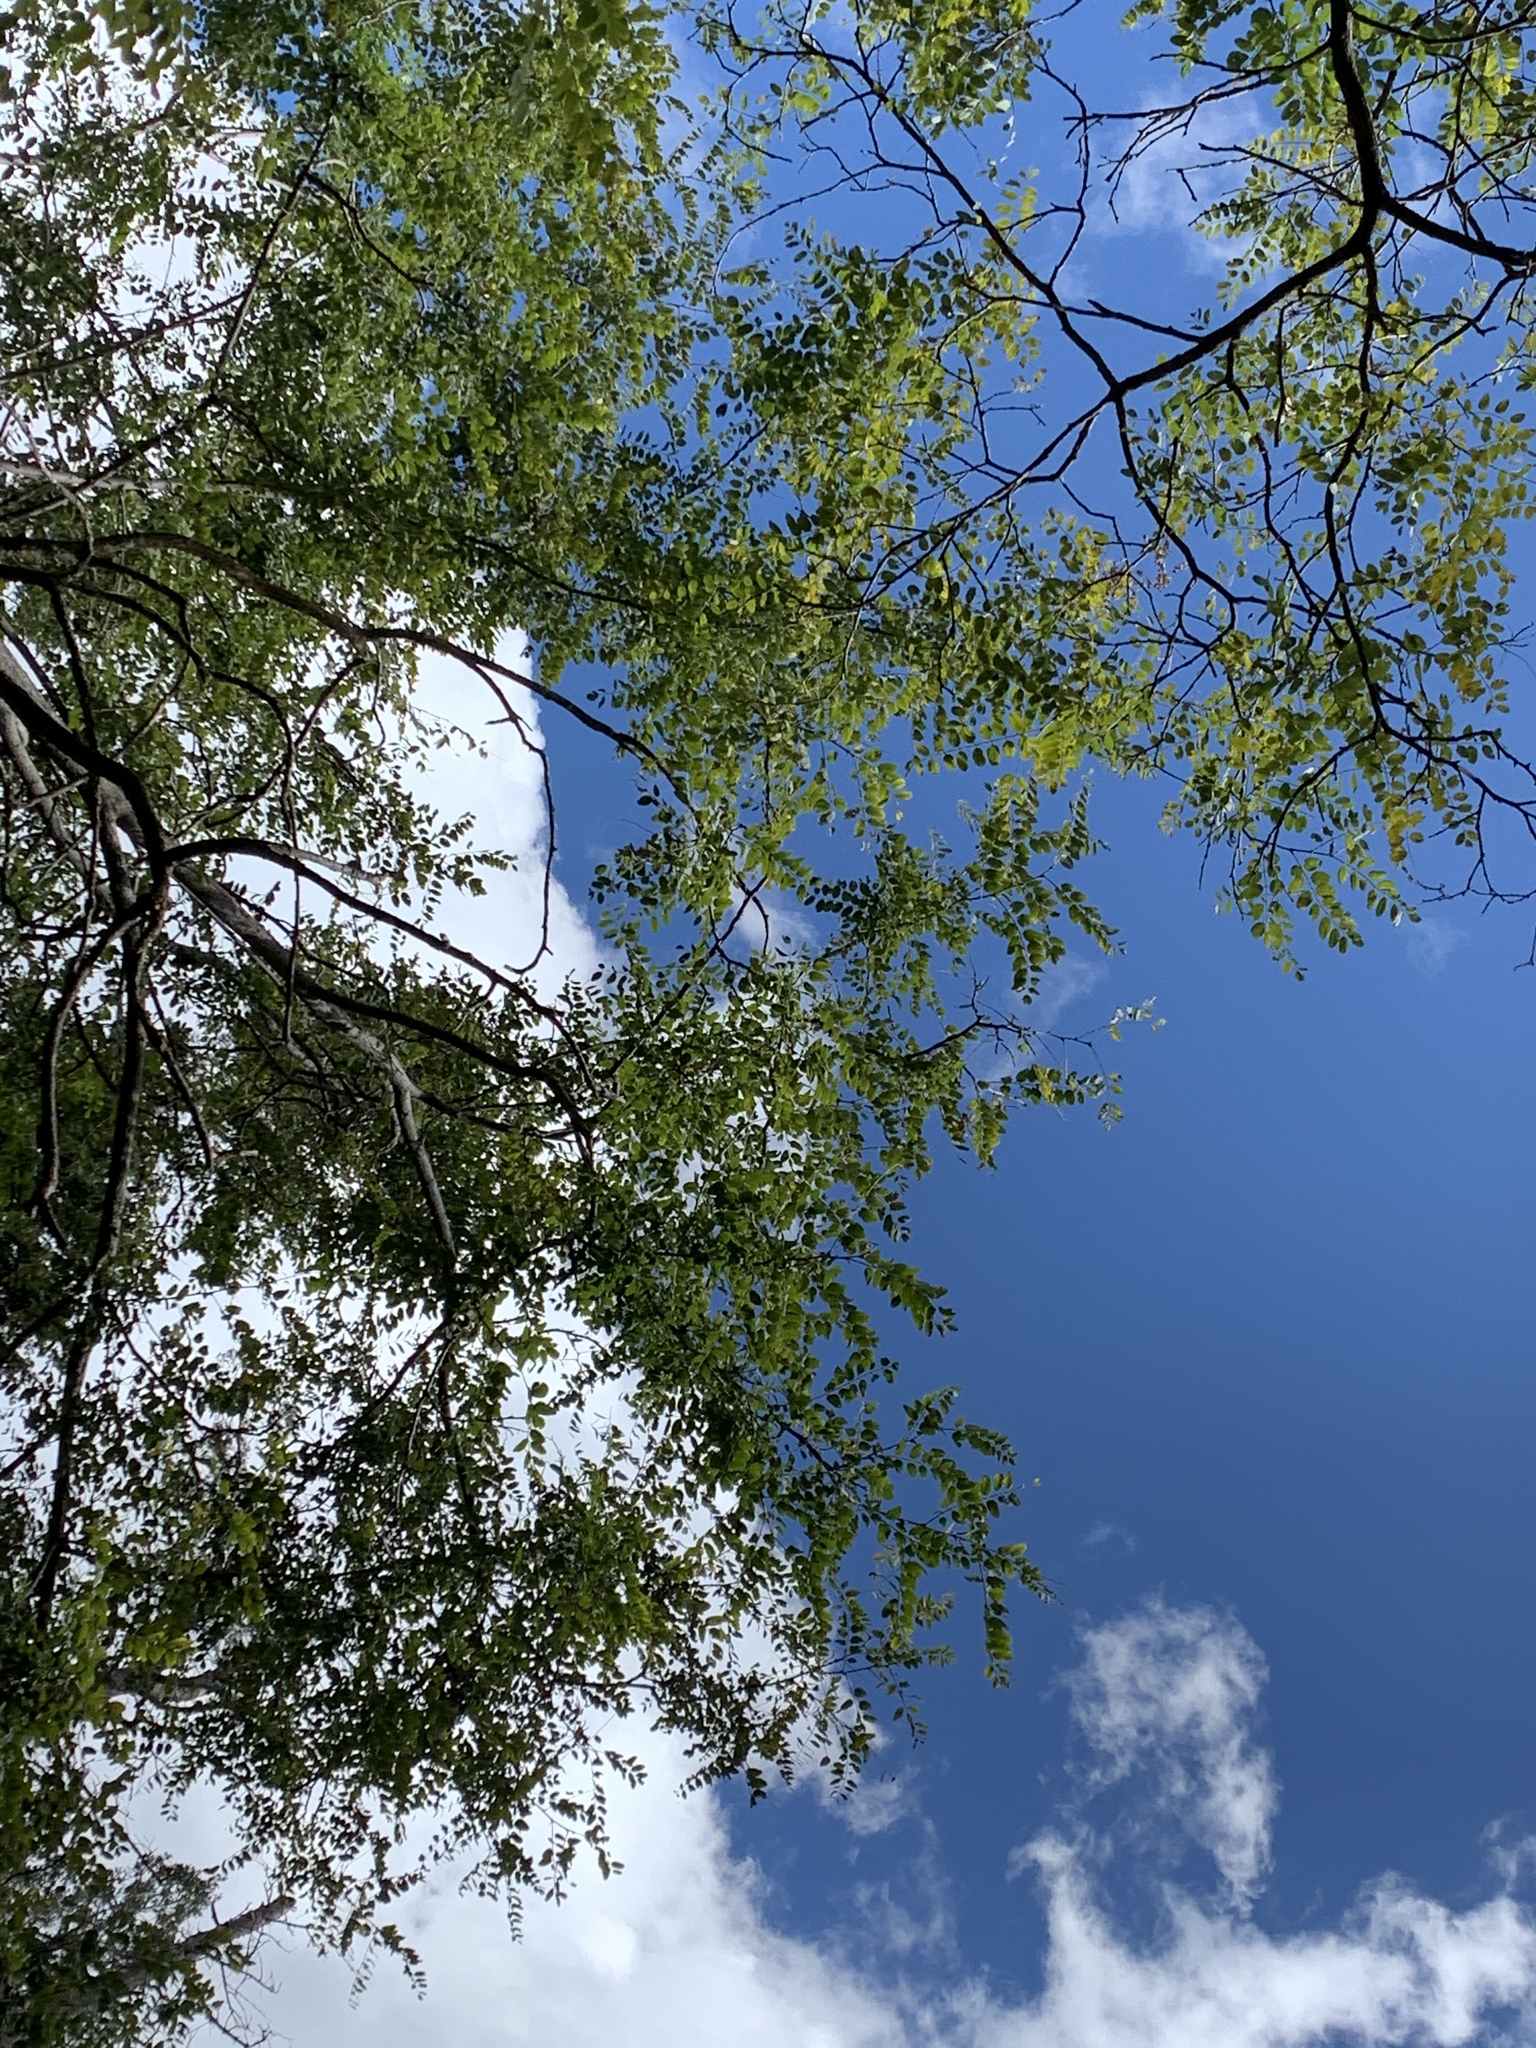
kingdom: Plantae
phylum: Tracheophyta
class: Magnoliopsida
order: Fabales
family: Fabaceae
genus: Robinia
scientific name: Robinia neomexicana
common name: New mexico locust
